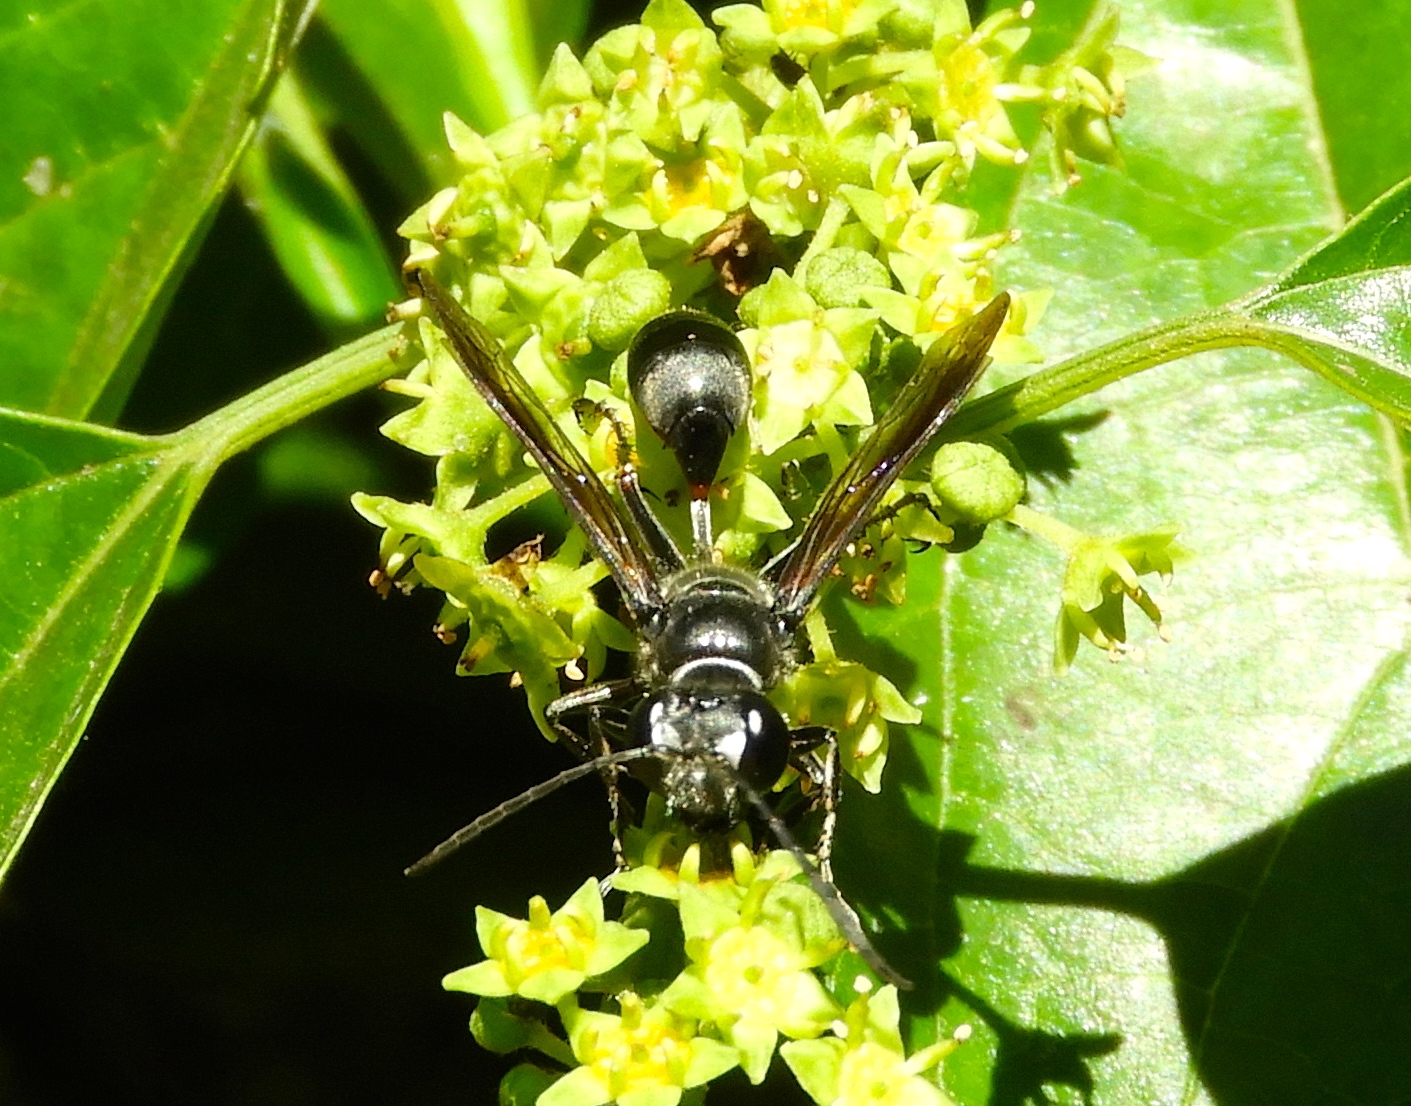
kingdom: Animalia
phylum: Arthropoda
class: Insecta
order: Hymenoptera
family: Sphecidae
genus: Isodontia
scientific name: Isodontia
